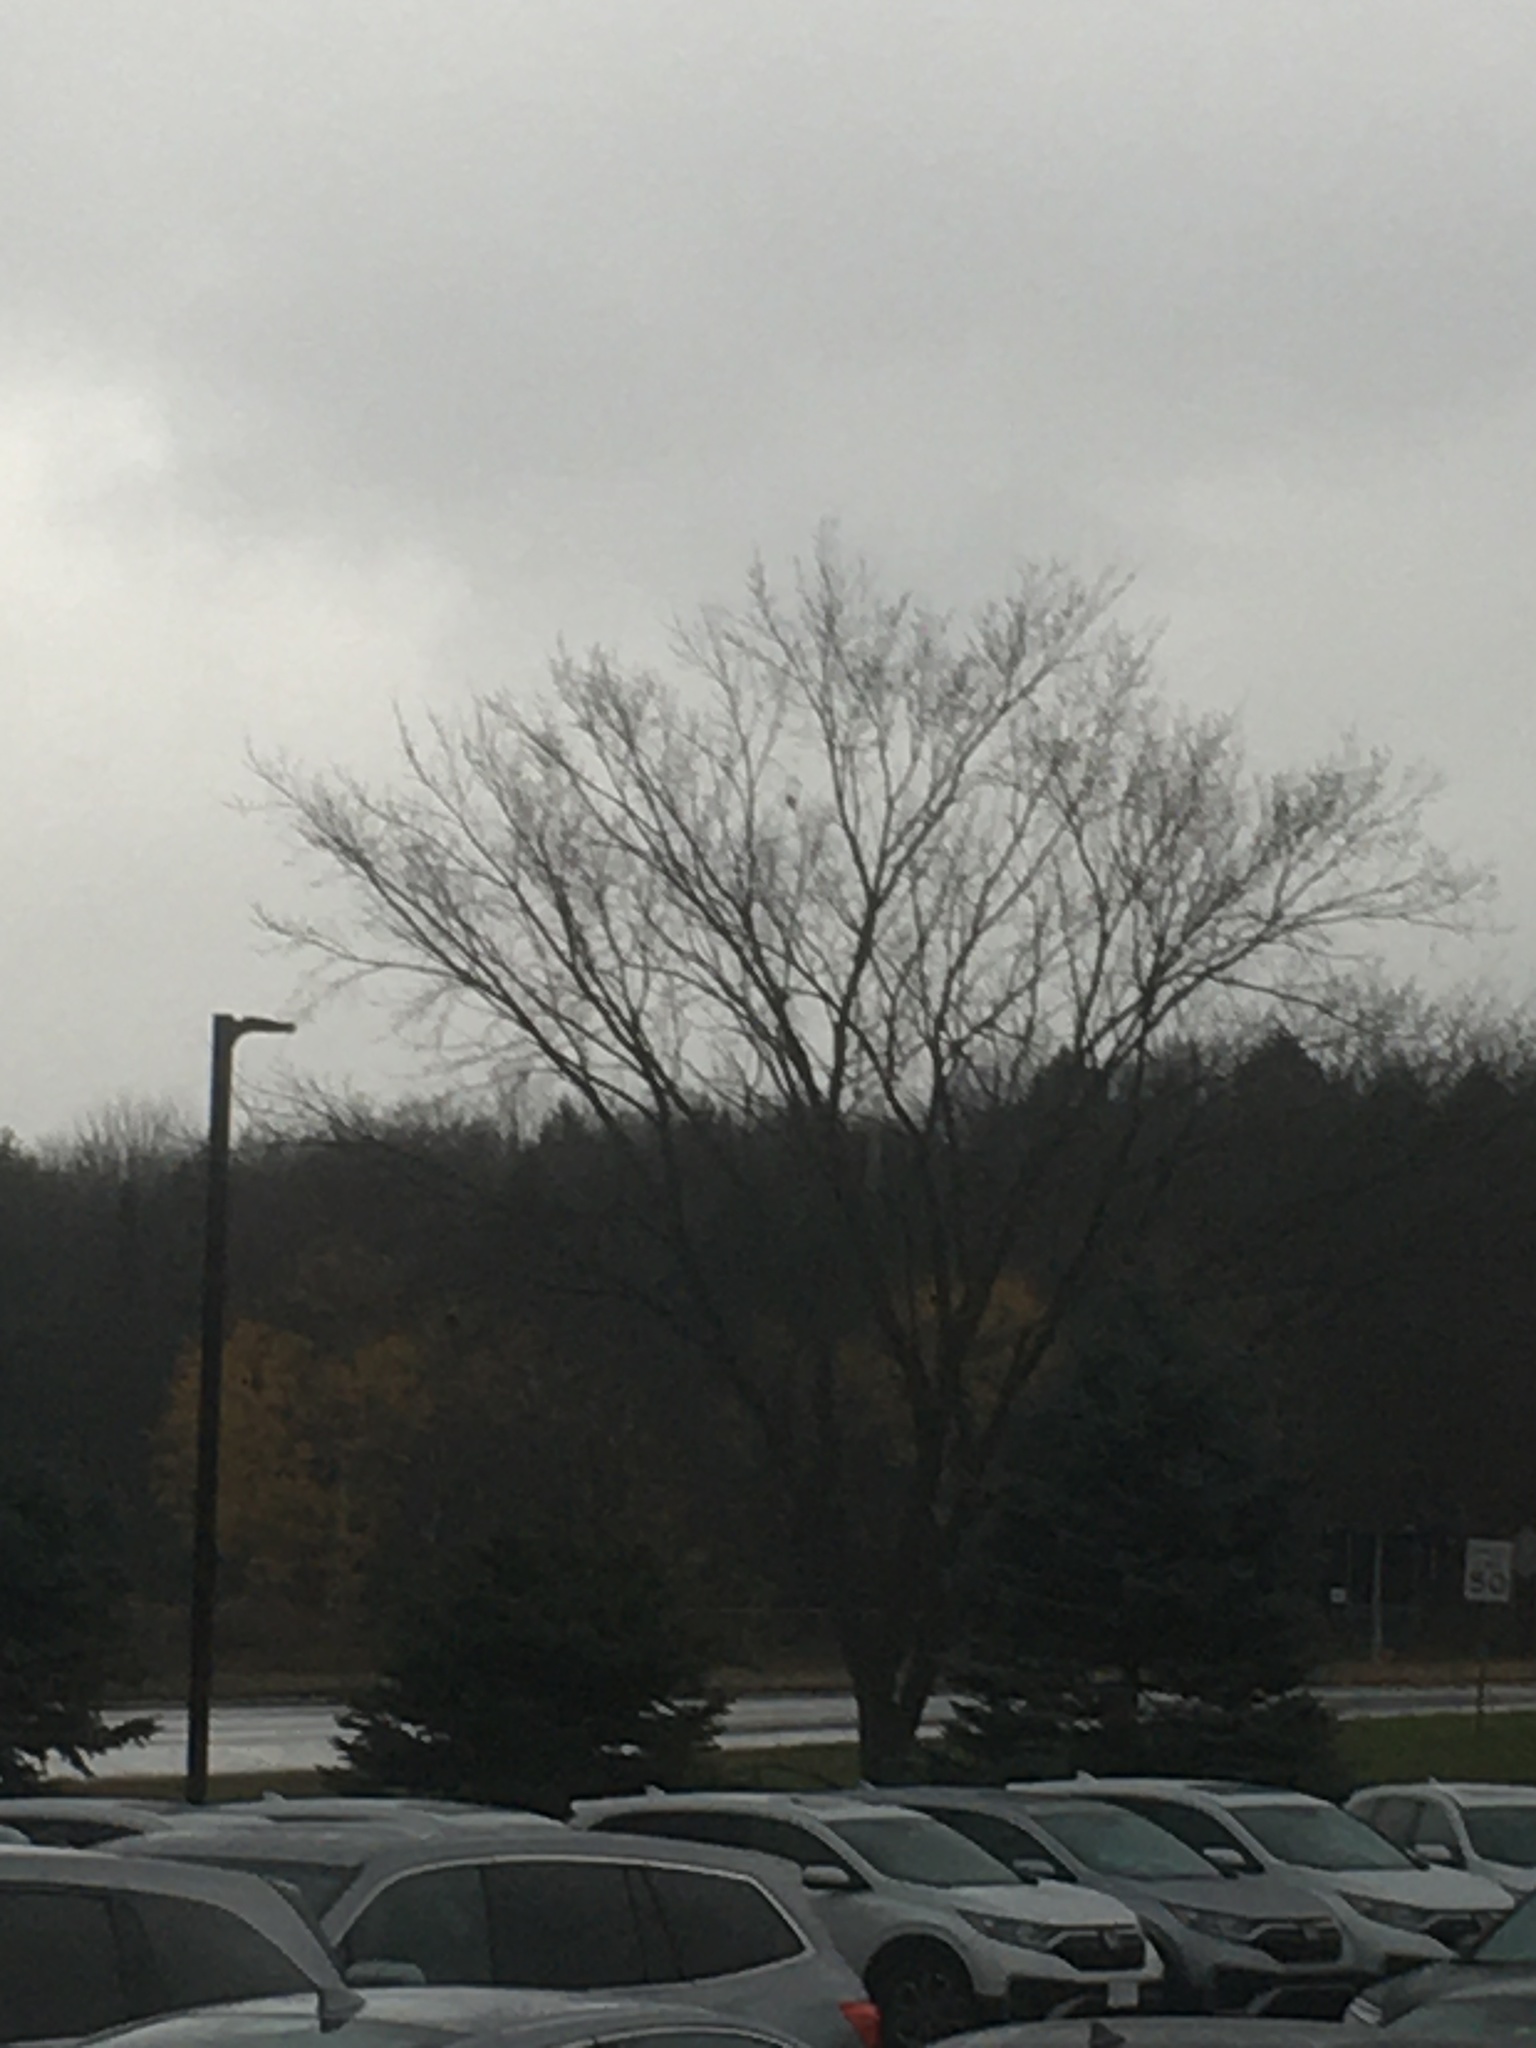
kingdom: Plantae
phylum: Tracheophyta
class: Magnoliopsida
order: Rosales
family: Ulmaceae
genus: Ulmus
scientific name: Ulmus americana
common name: American elm
